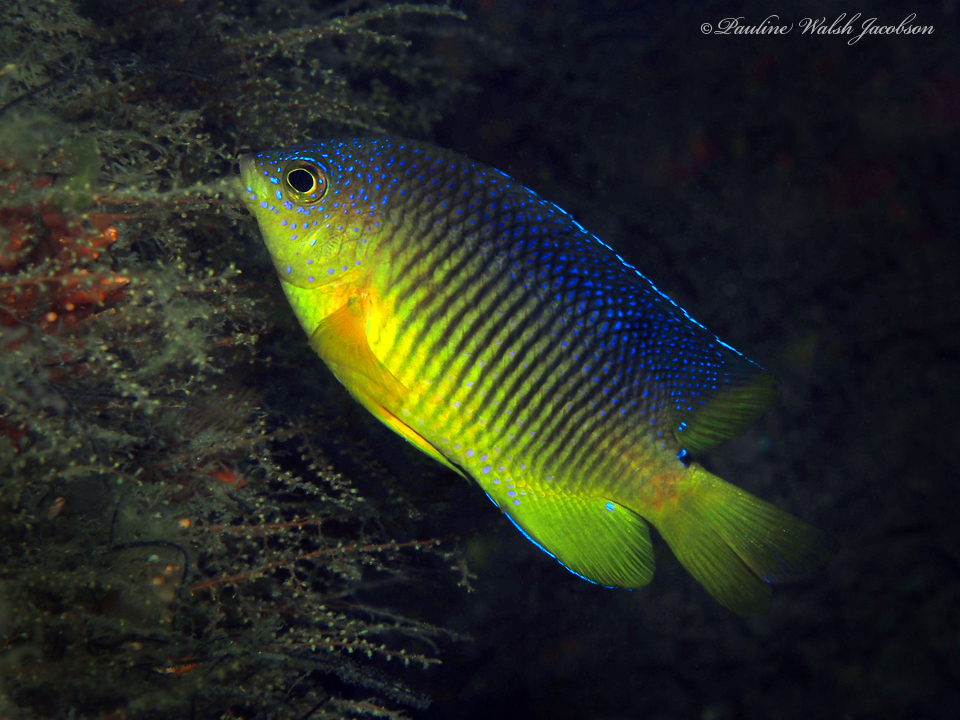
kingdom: Animalia
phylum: Chordata
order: Perciformes
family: Pomacentridae
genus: Stegastes
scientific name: Stegastes xanthurus
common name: Cocoa damselfish
